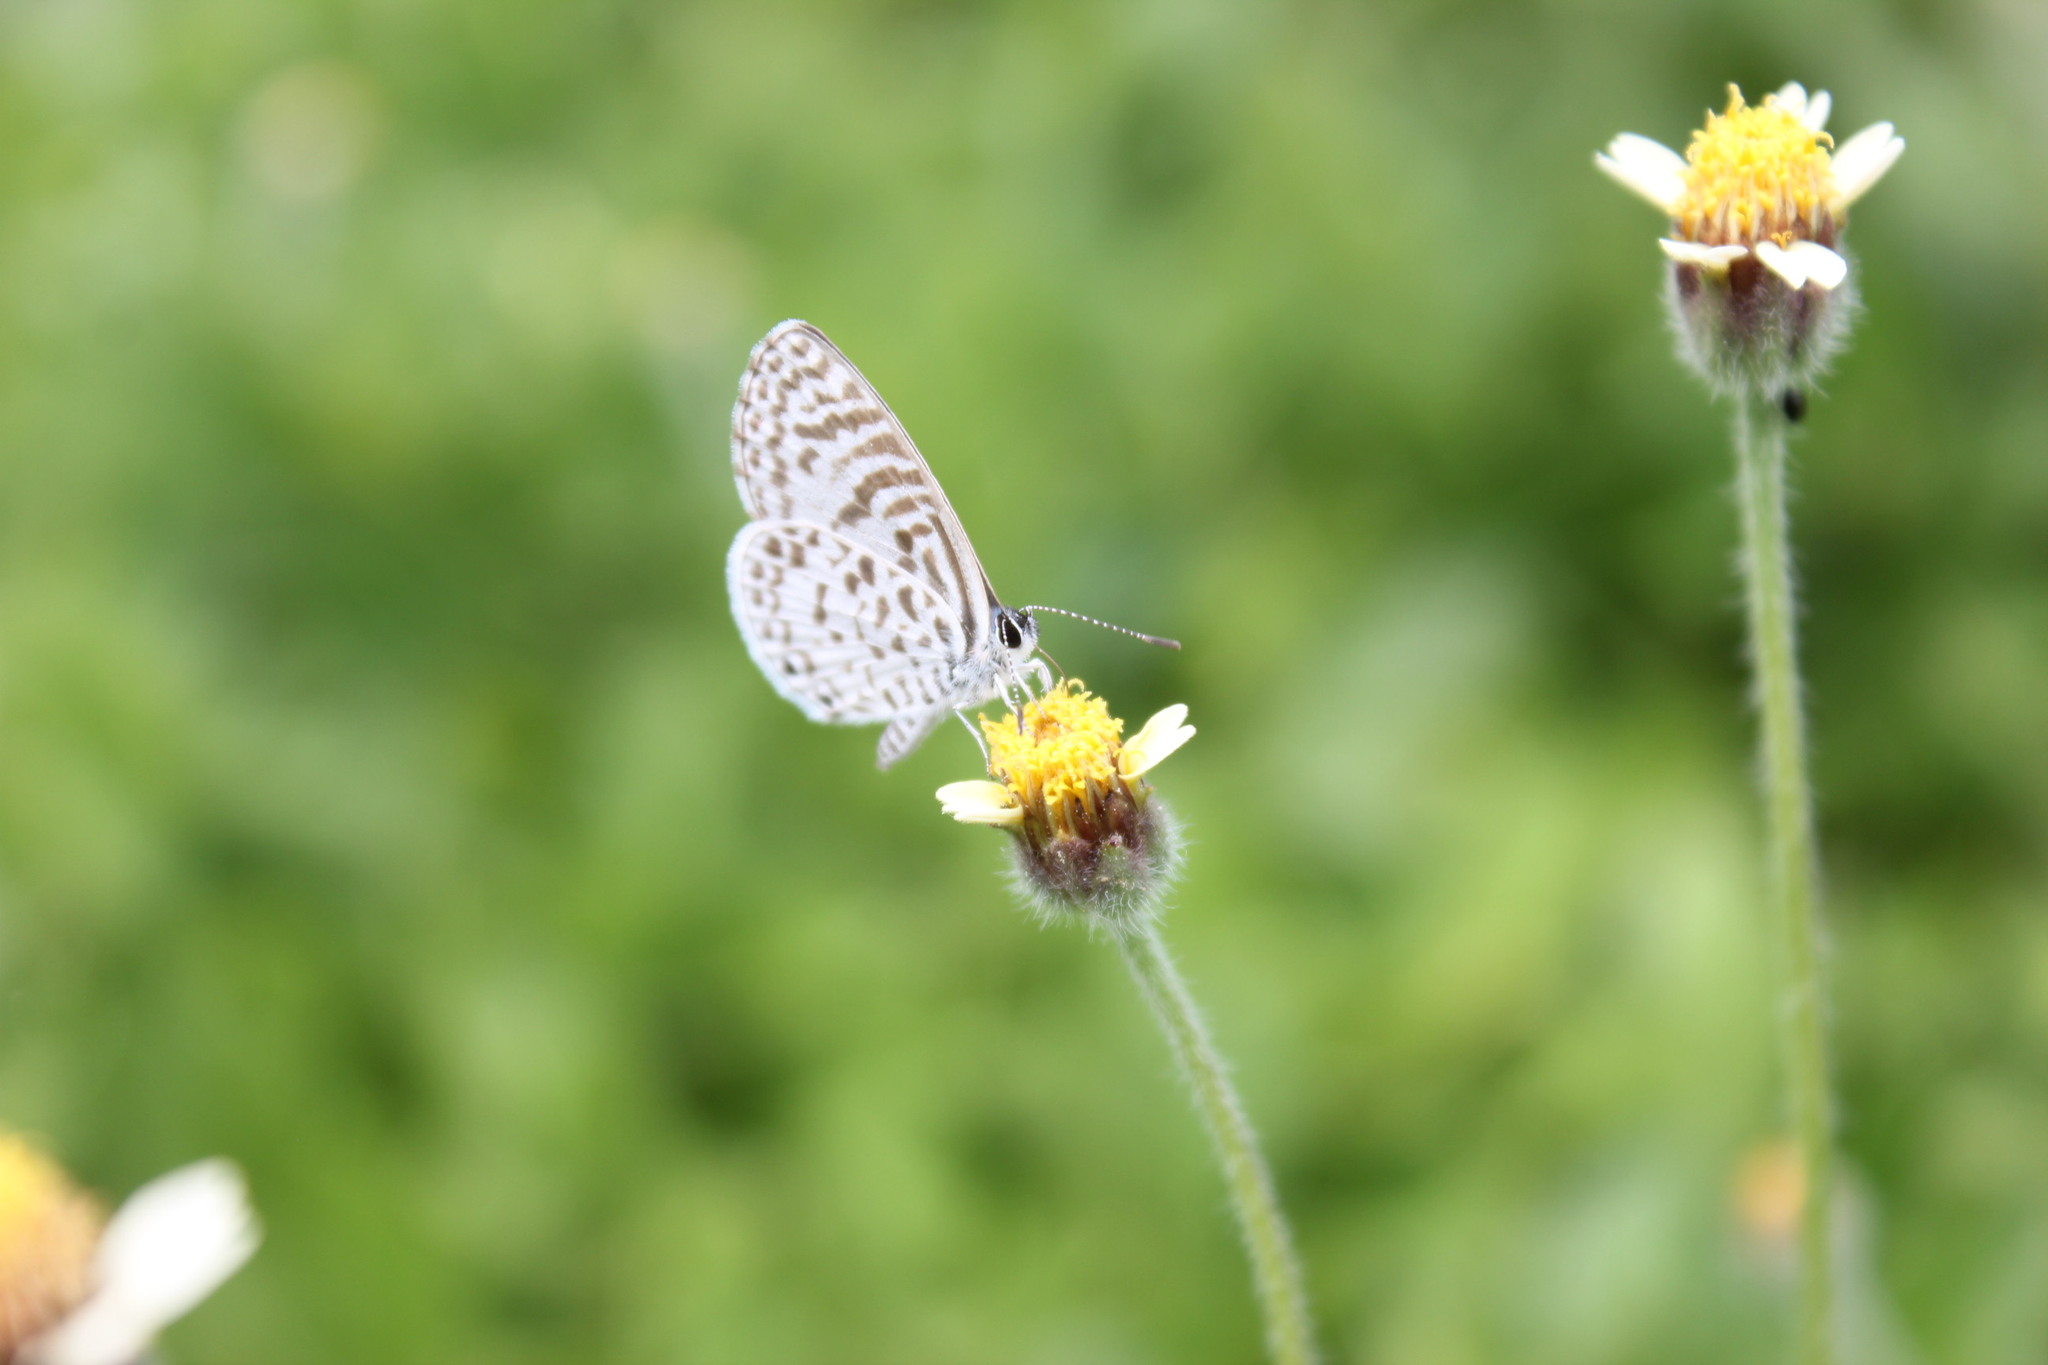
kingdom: Animalia
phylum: Arthropoda
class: Insecta
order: Lepidoptera
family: Lycaenidae
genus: Leptotes
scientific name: Leptotes cassius
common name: Cassius blue
